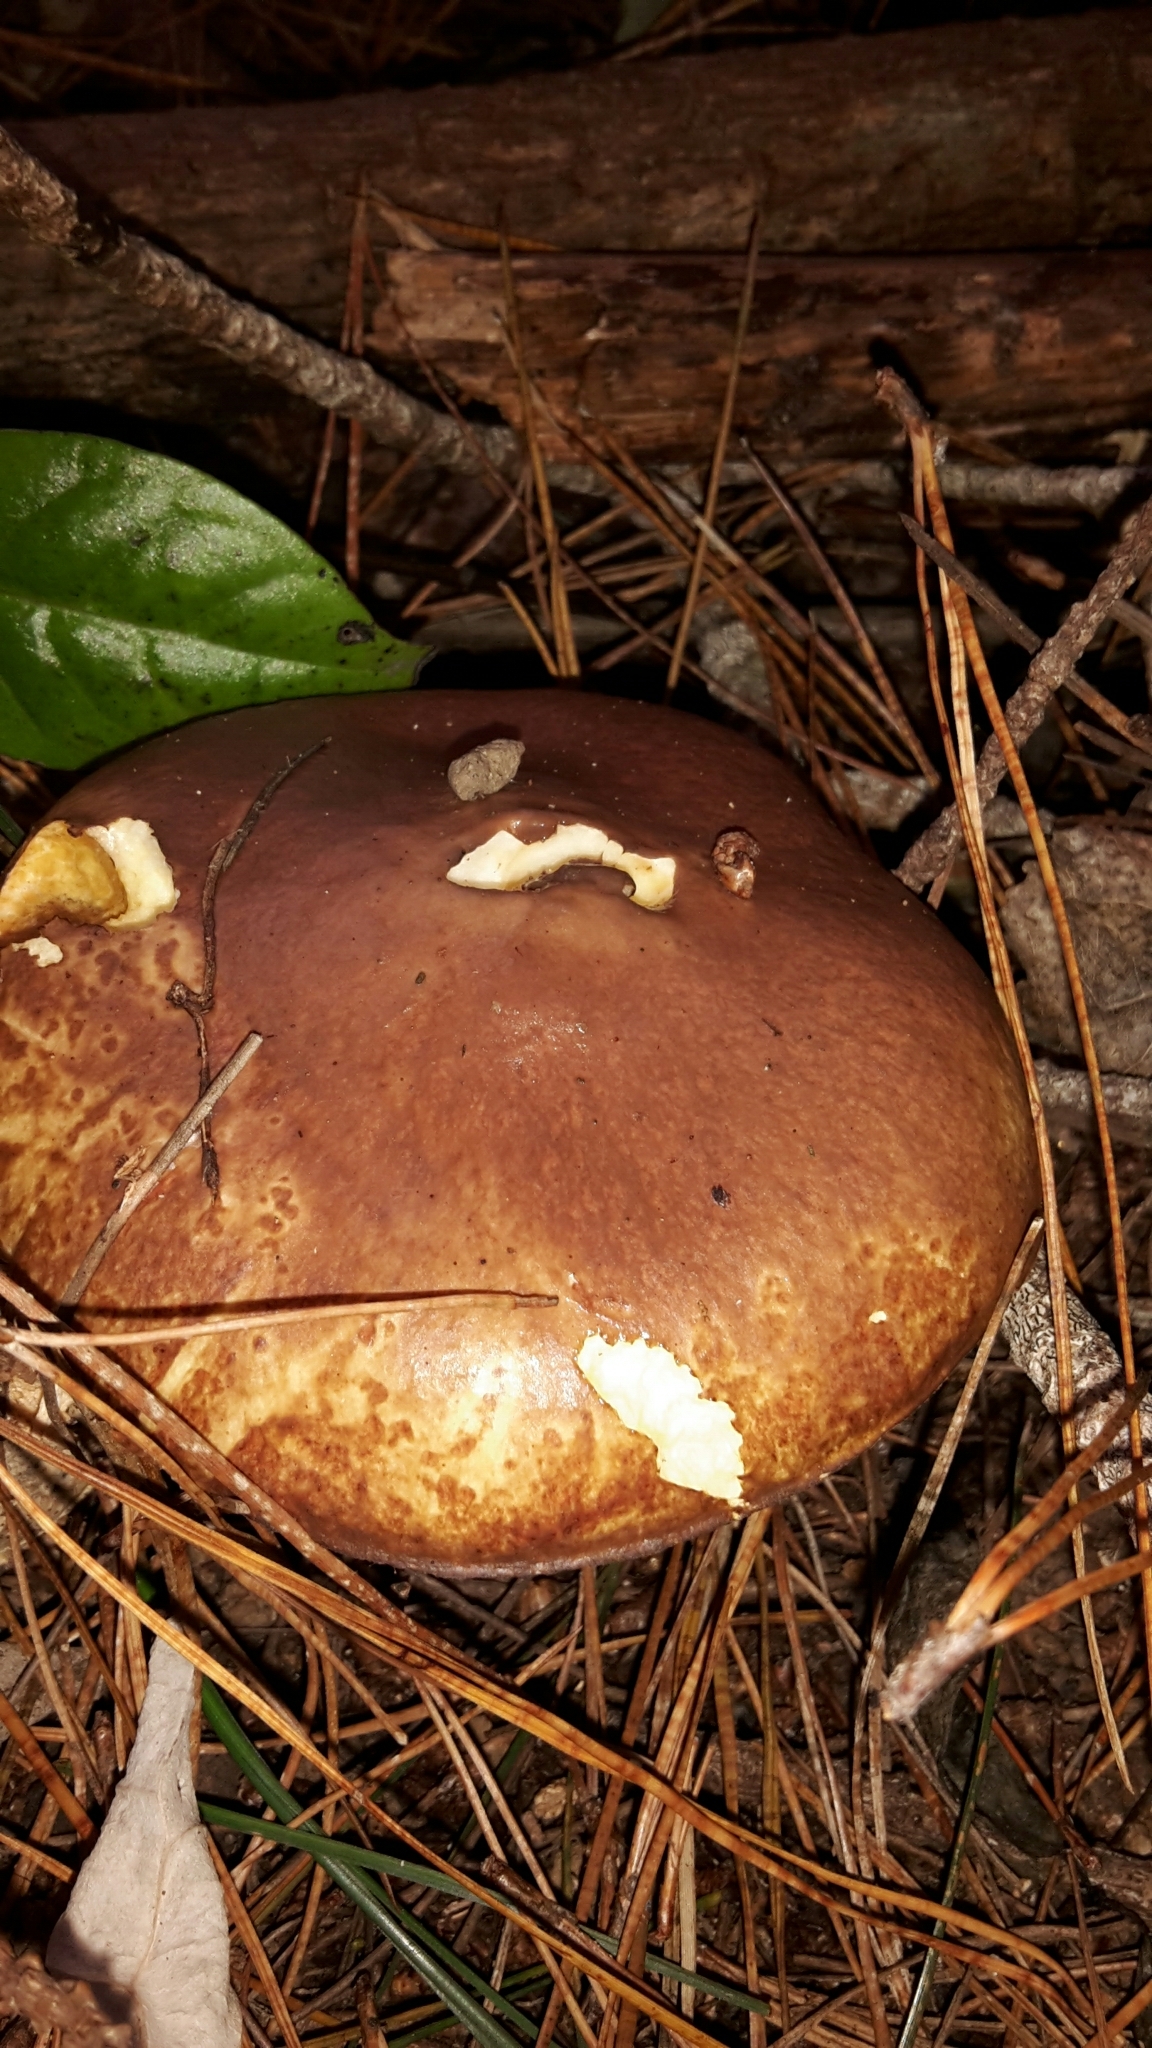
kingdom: Fungi
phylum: Basidiomycota
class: Agaricomycetes
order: Boletales
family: Suillaceae
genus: Suillus
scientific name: Suillus granulatus
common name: Weeping bolete
